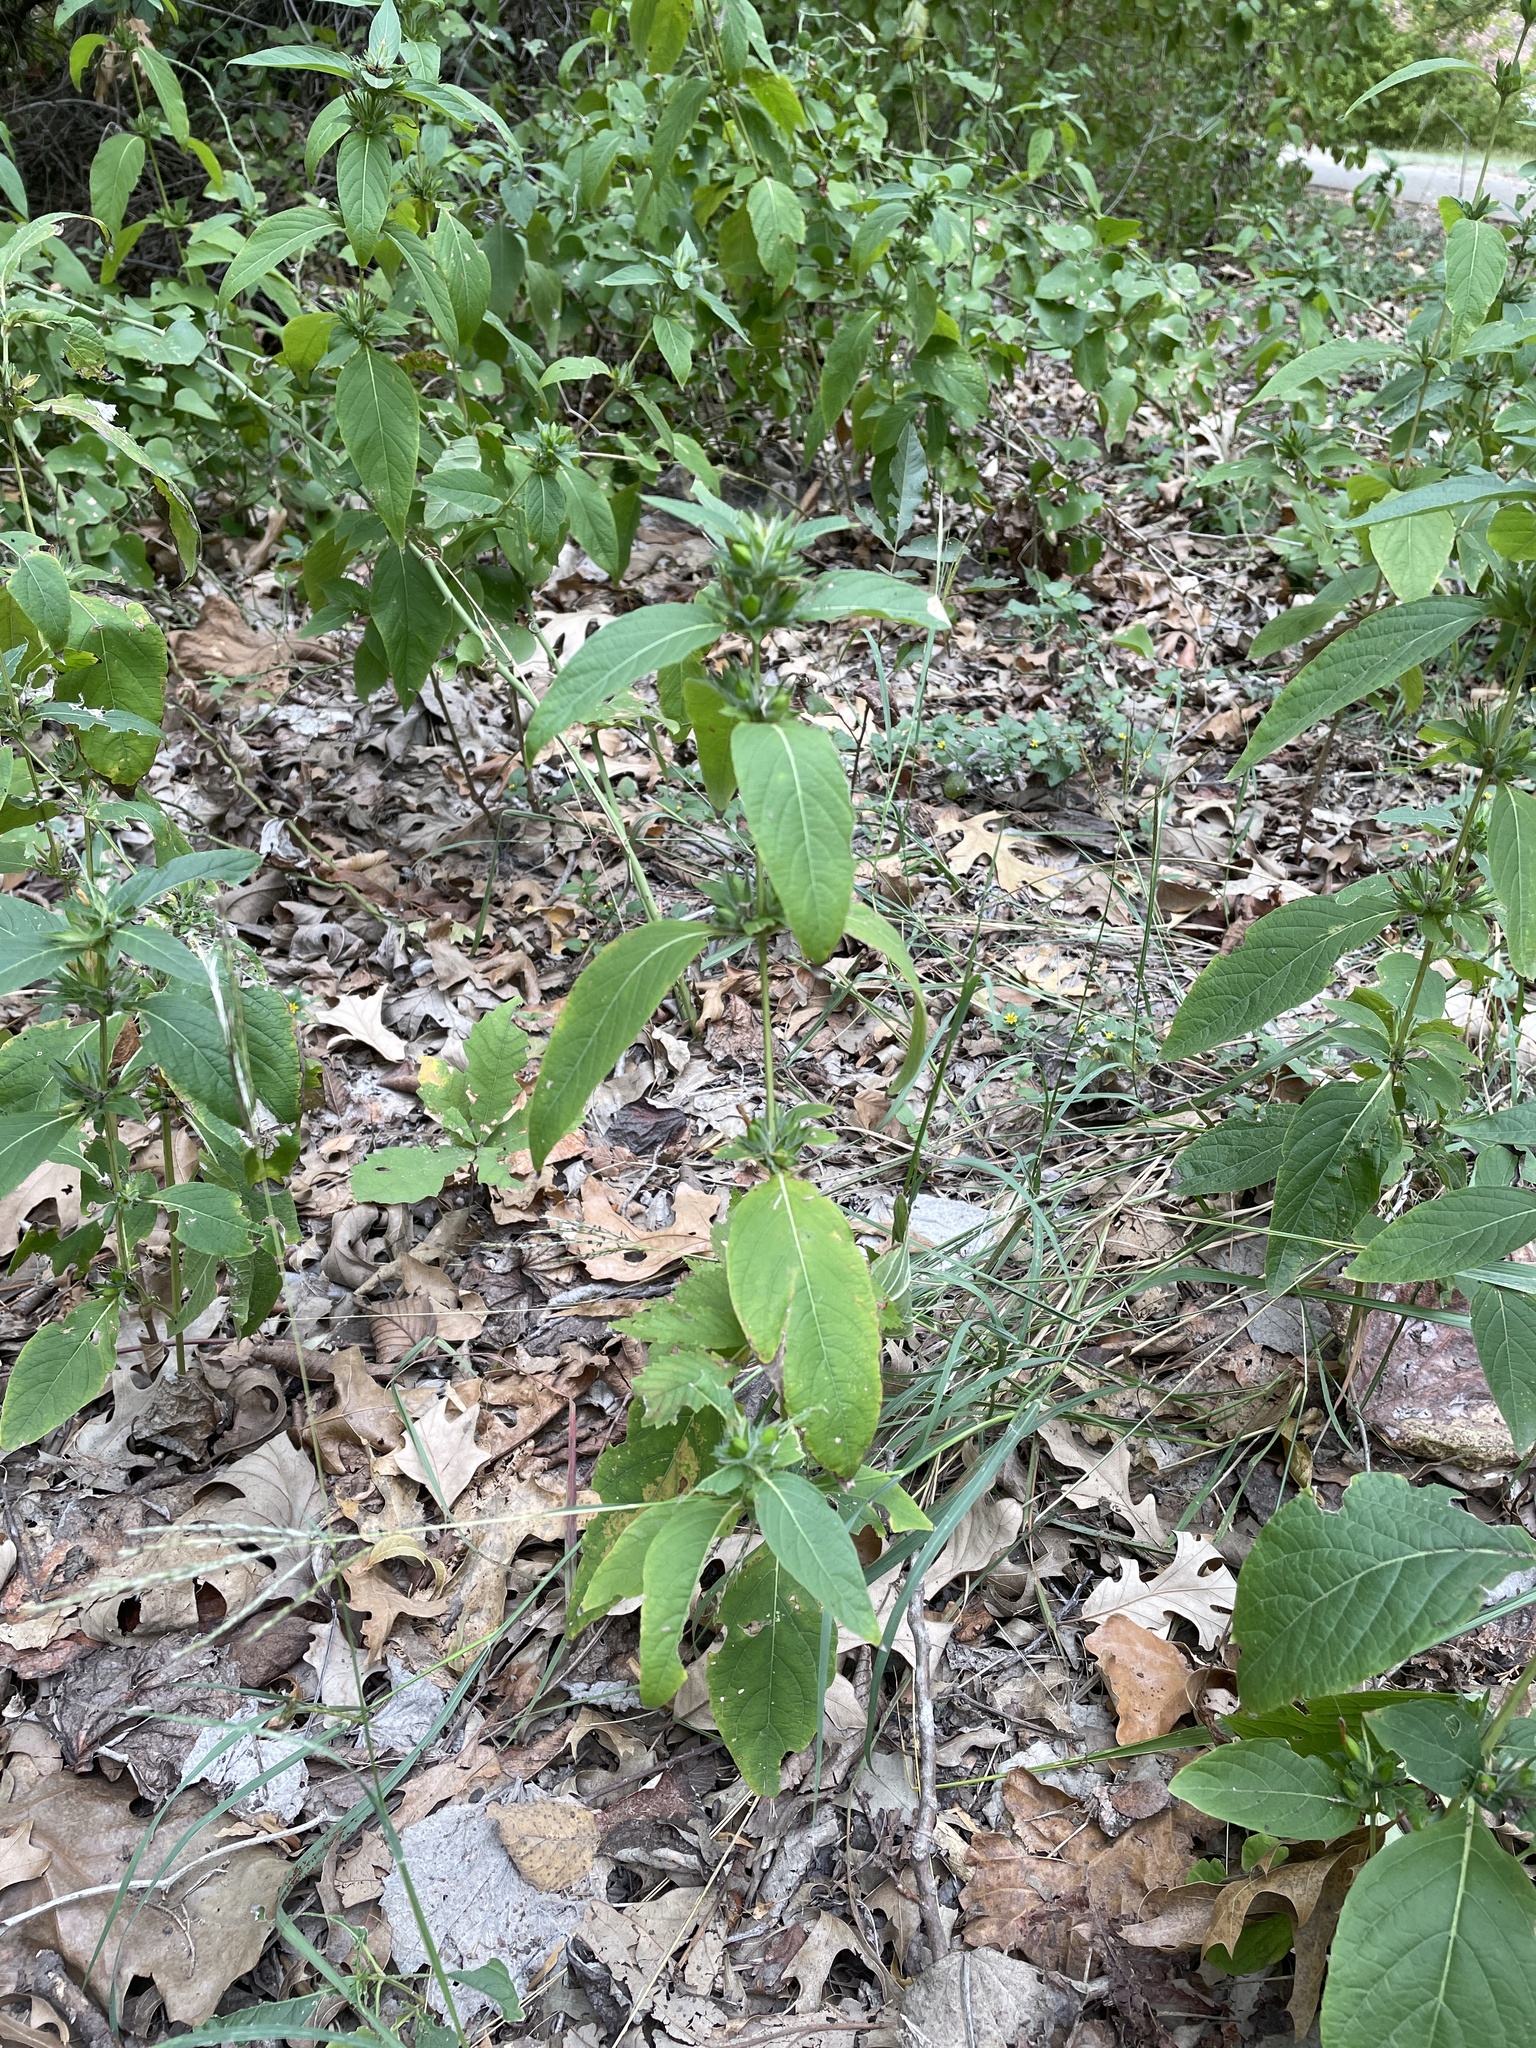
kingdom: Plantae
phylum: Tracheophyta
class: Magnoliopsida
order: Lamiales
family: Acanthaceae
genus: Ruellia
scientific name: Ruellia strepens
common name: Limestone wild petunia
